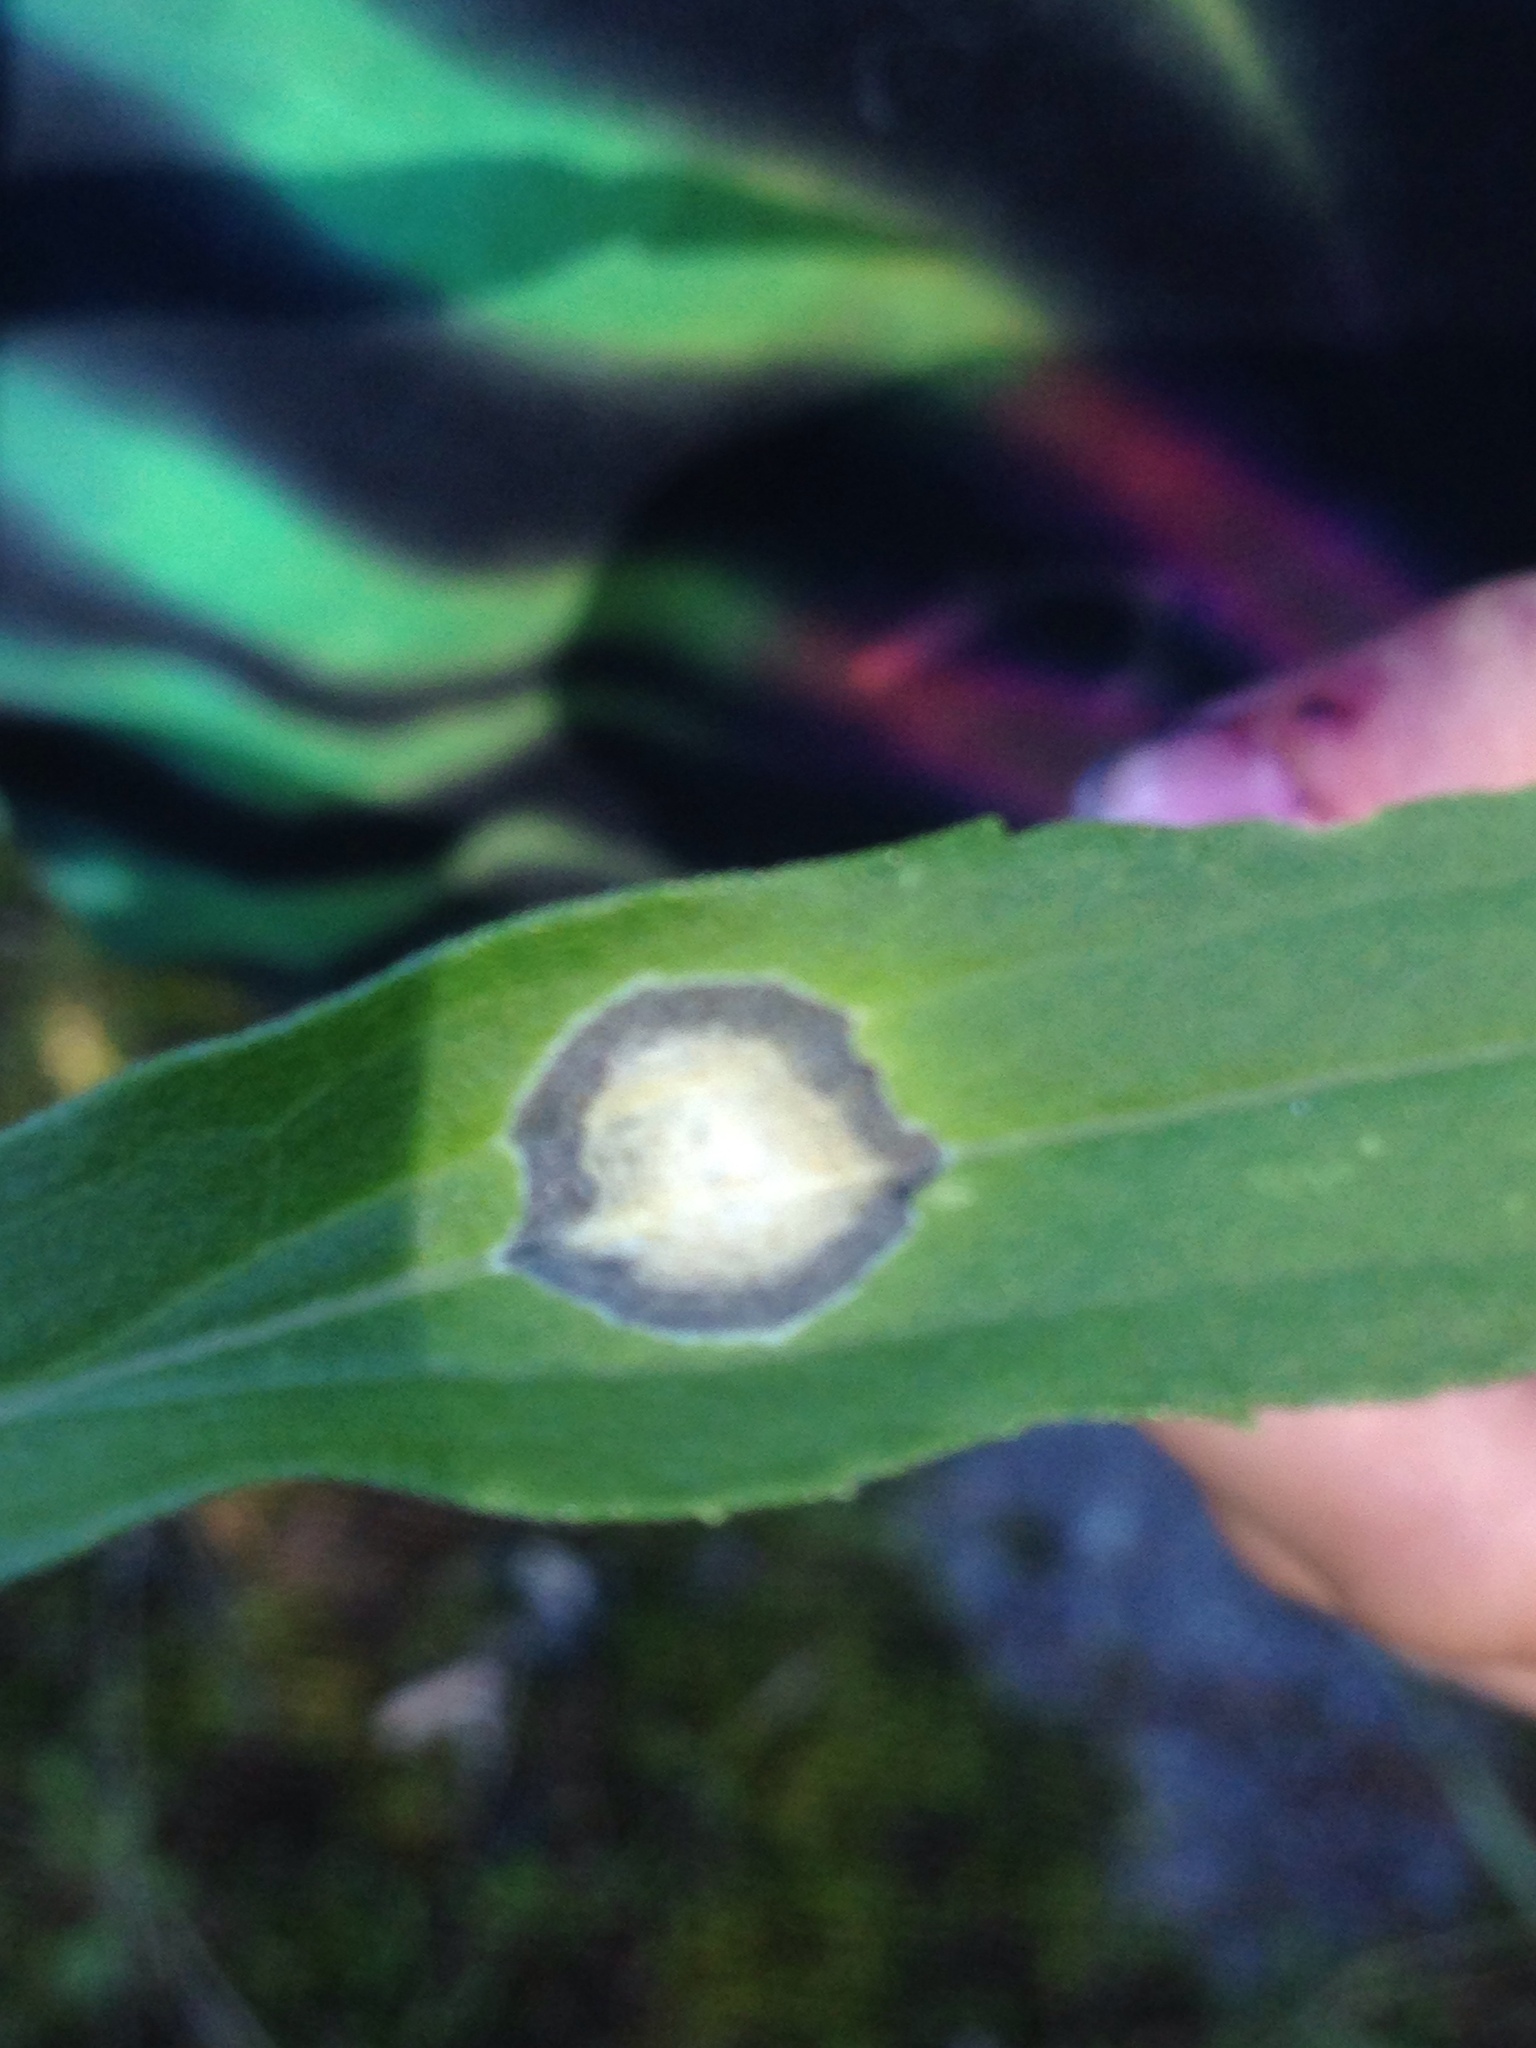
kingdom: Animalia
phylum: Arthropoda
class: Insecta
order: Diptera
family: Cecidomyiidae
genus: Asteromyia
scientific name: Asteromyia carbonifera
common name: Carbonifera goldenrod gall midge
